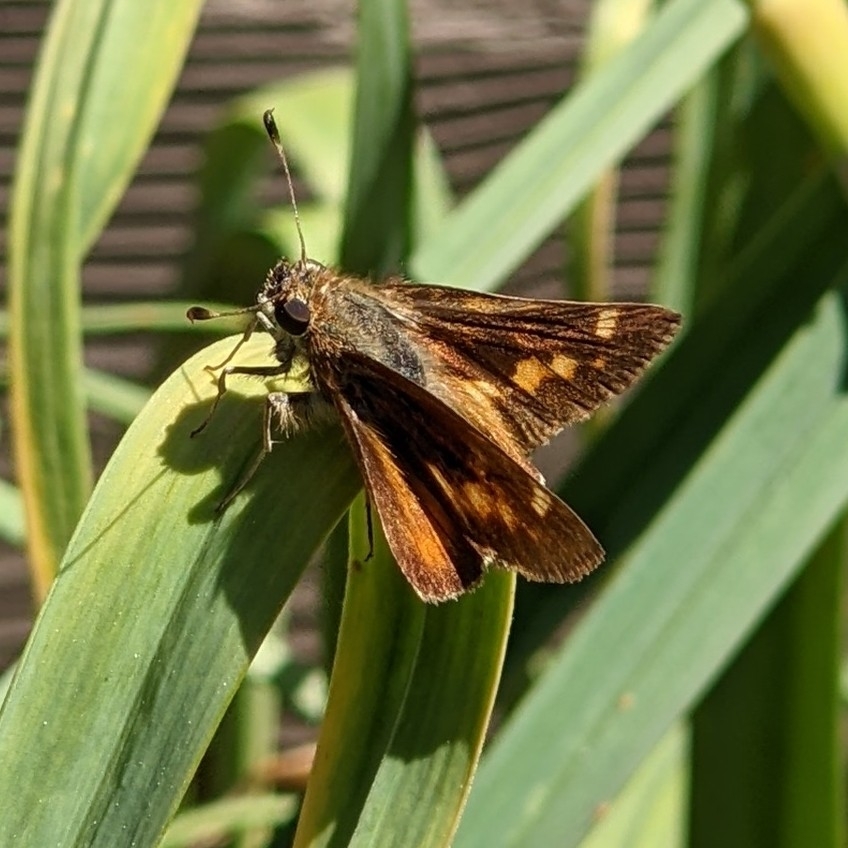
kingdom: Animalia
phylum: Arthropoda
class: Insecta
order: Lepidoptera
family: Hesperiidae
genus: Lon
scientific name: Lon melane
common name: Umber skipper
